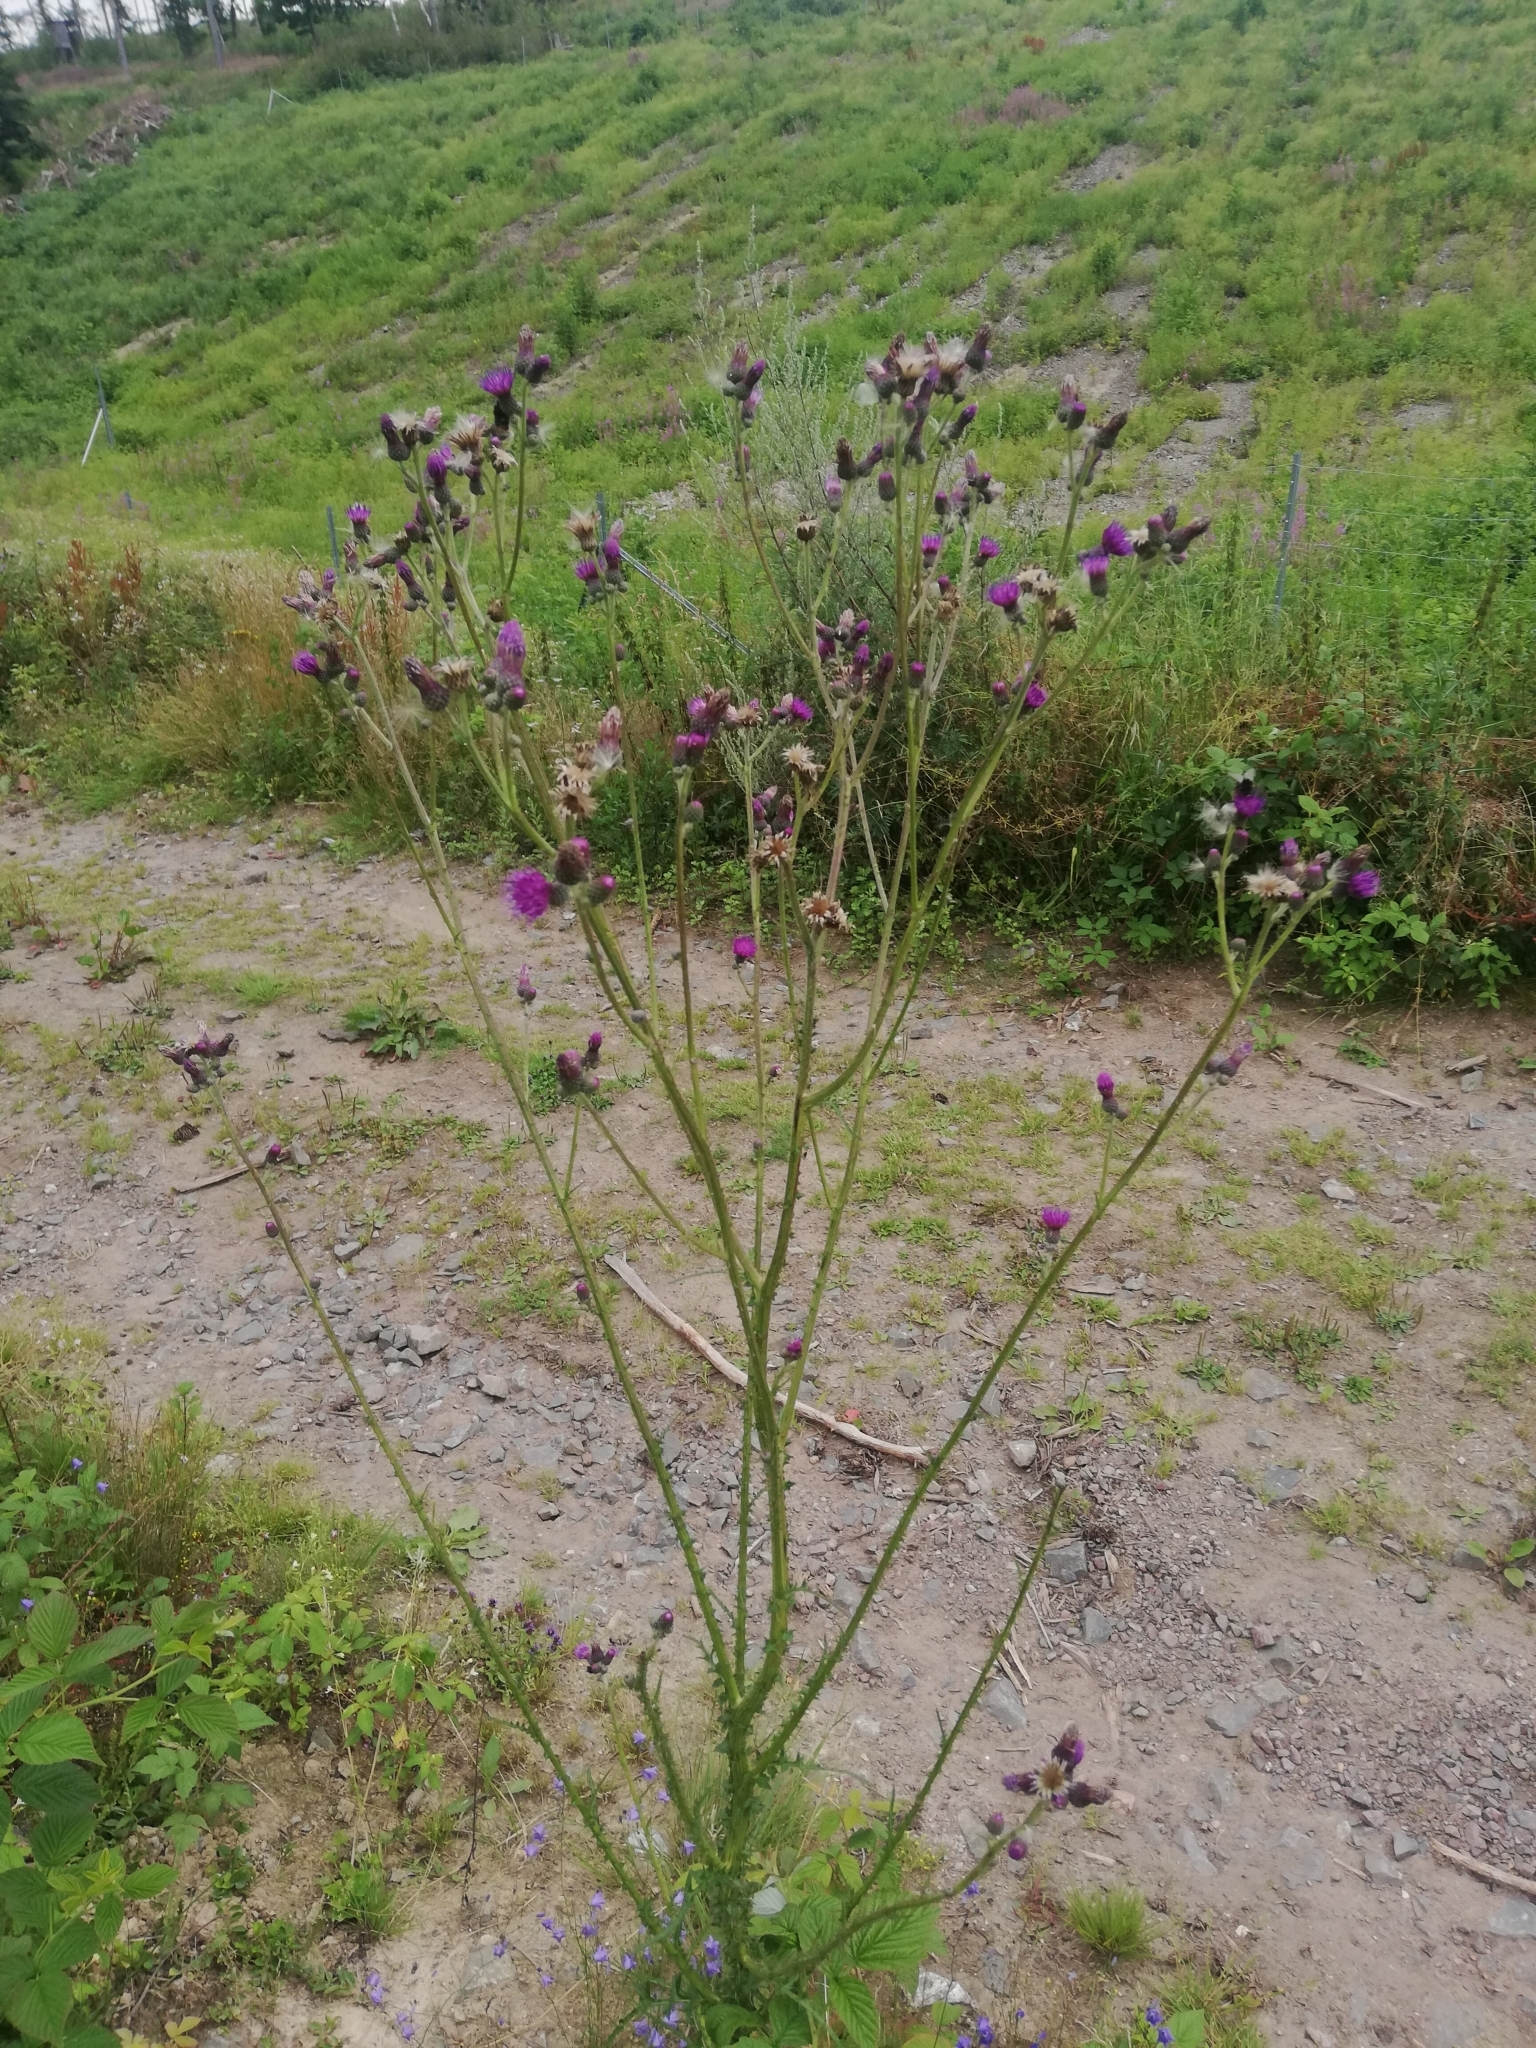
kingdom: Plantae
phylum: Tracheophyta
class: Magnoliopsida
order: Asterales
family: Asteraceae
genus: Cirsium
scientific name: Cirsium palustre
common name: Marsh thistle
